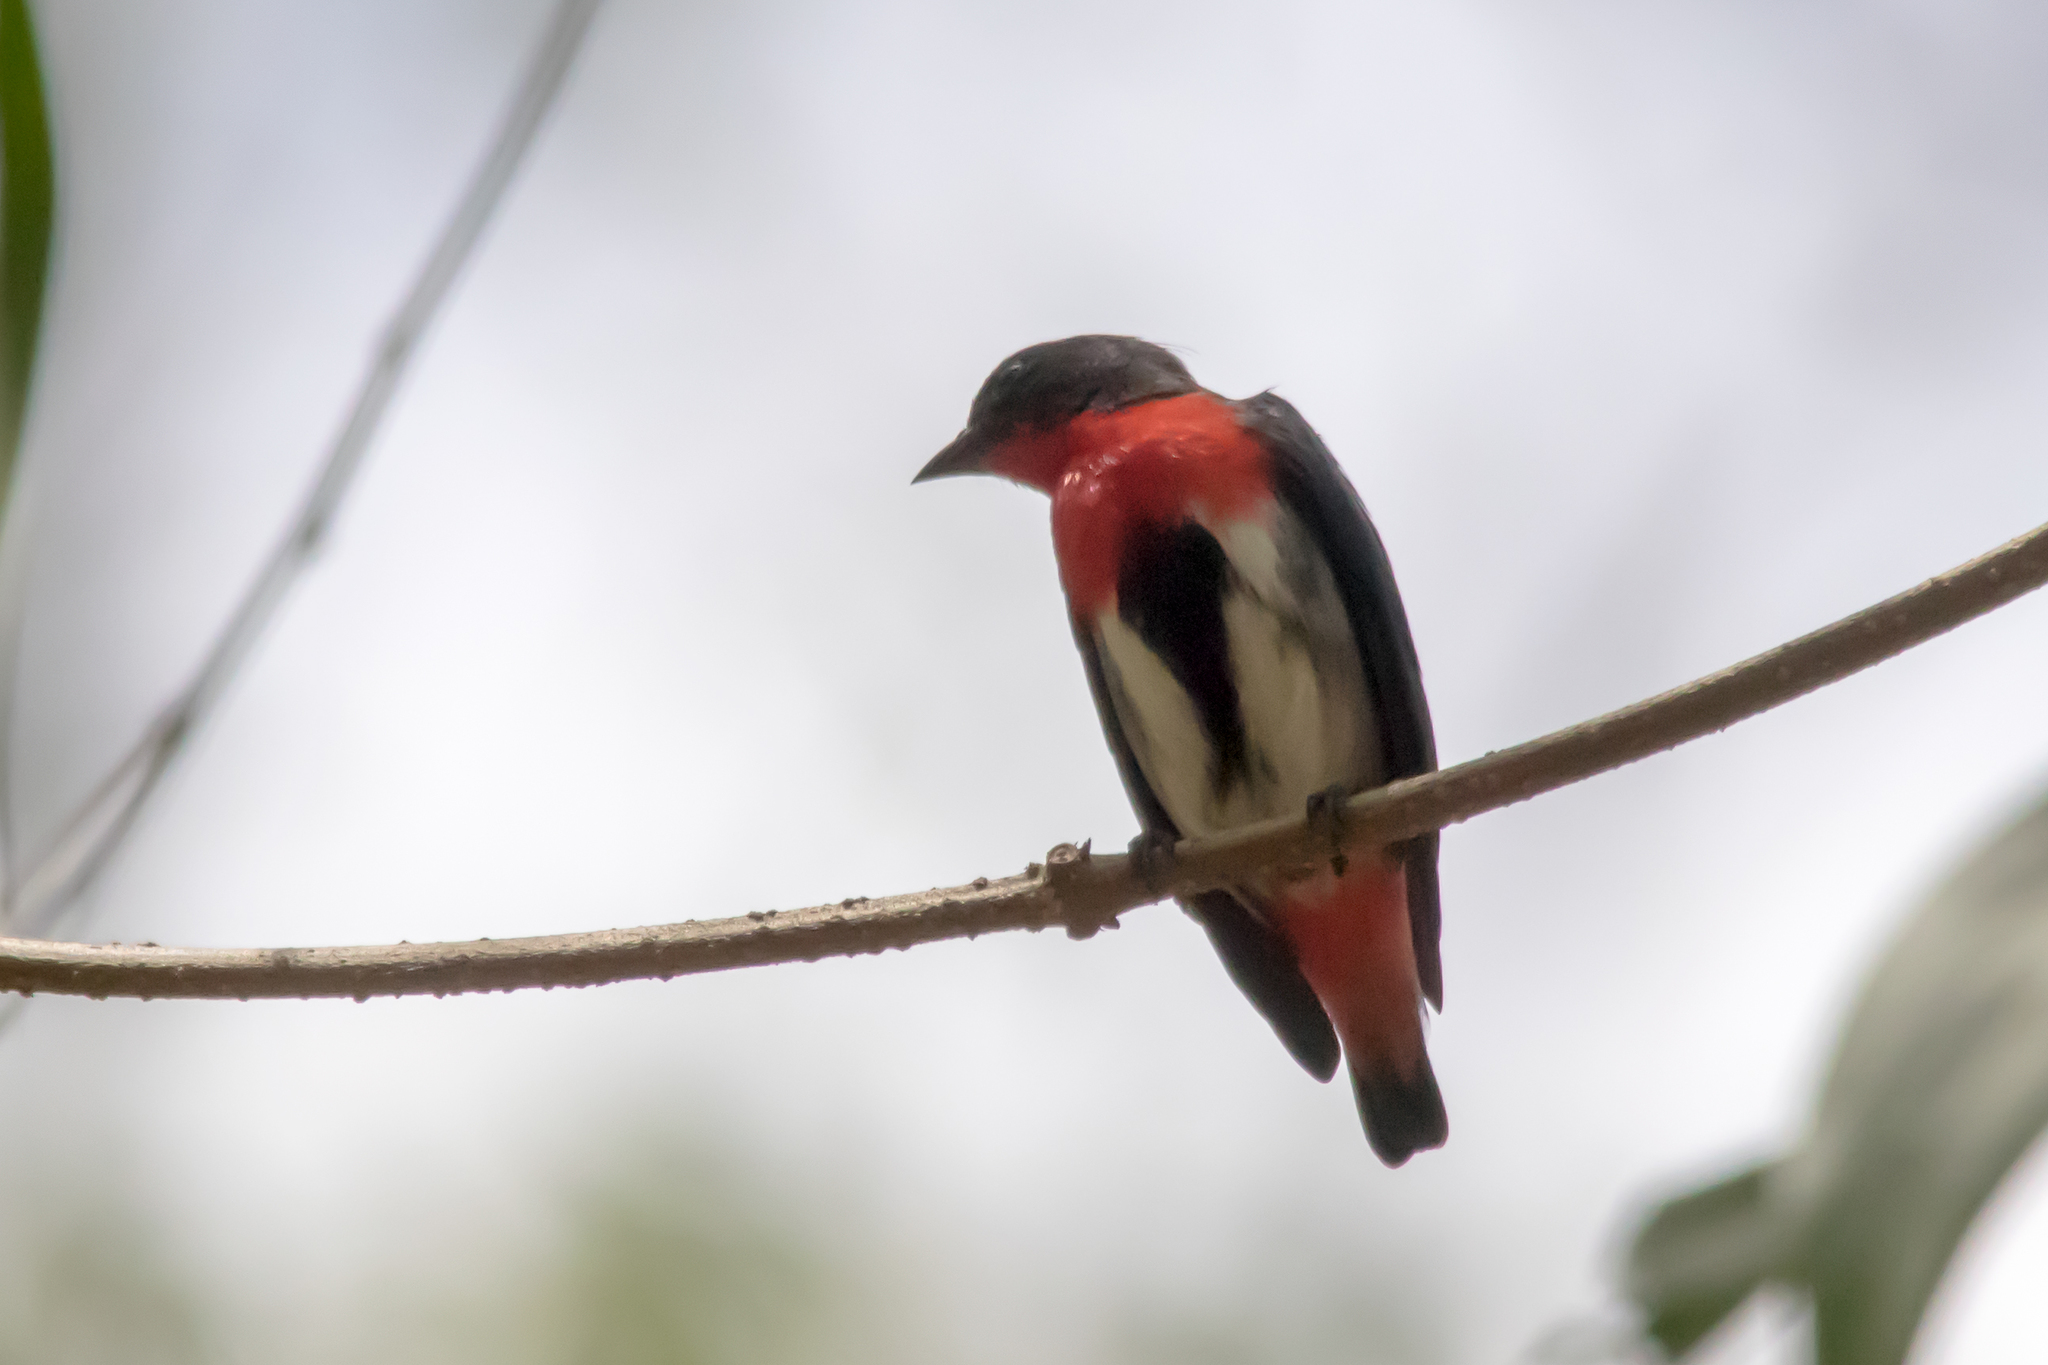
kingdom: Animalia
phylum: Chordata
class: Aves
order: Passeriformes
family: Dicaeidae
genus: Dicaeum
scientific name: Dicaeum hirundinaceum
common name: Mistletoebird
